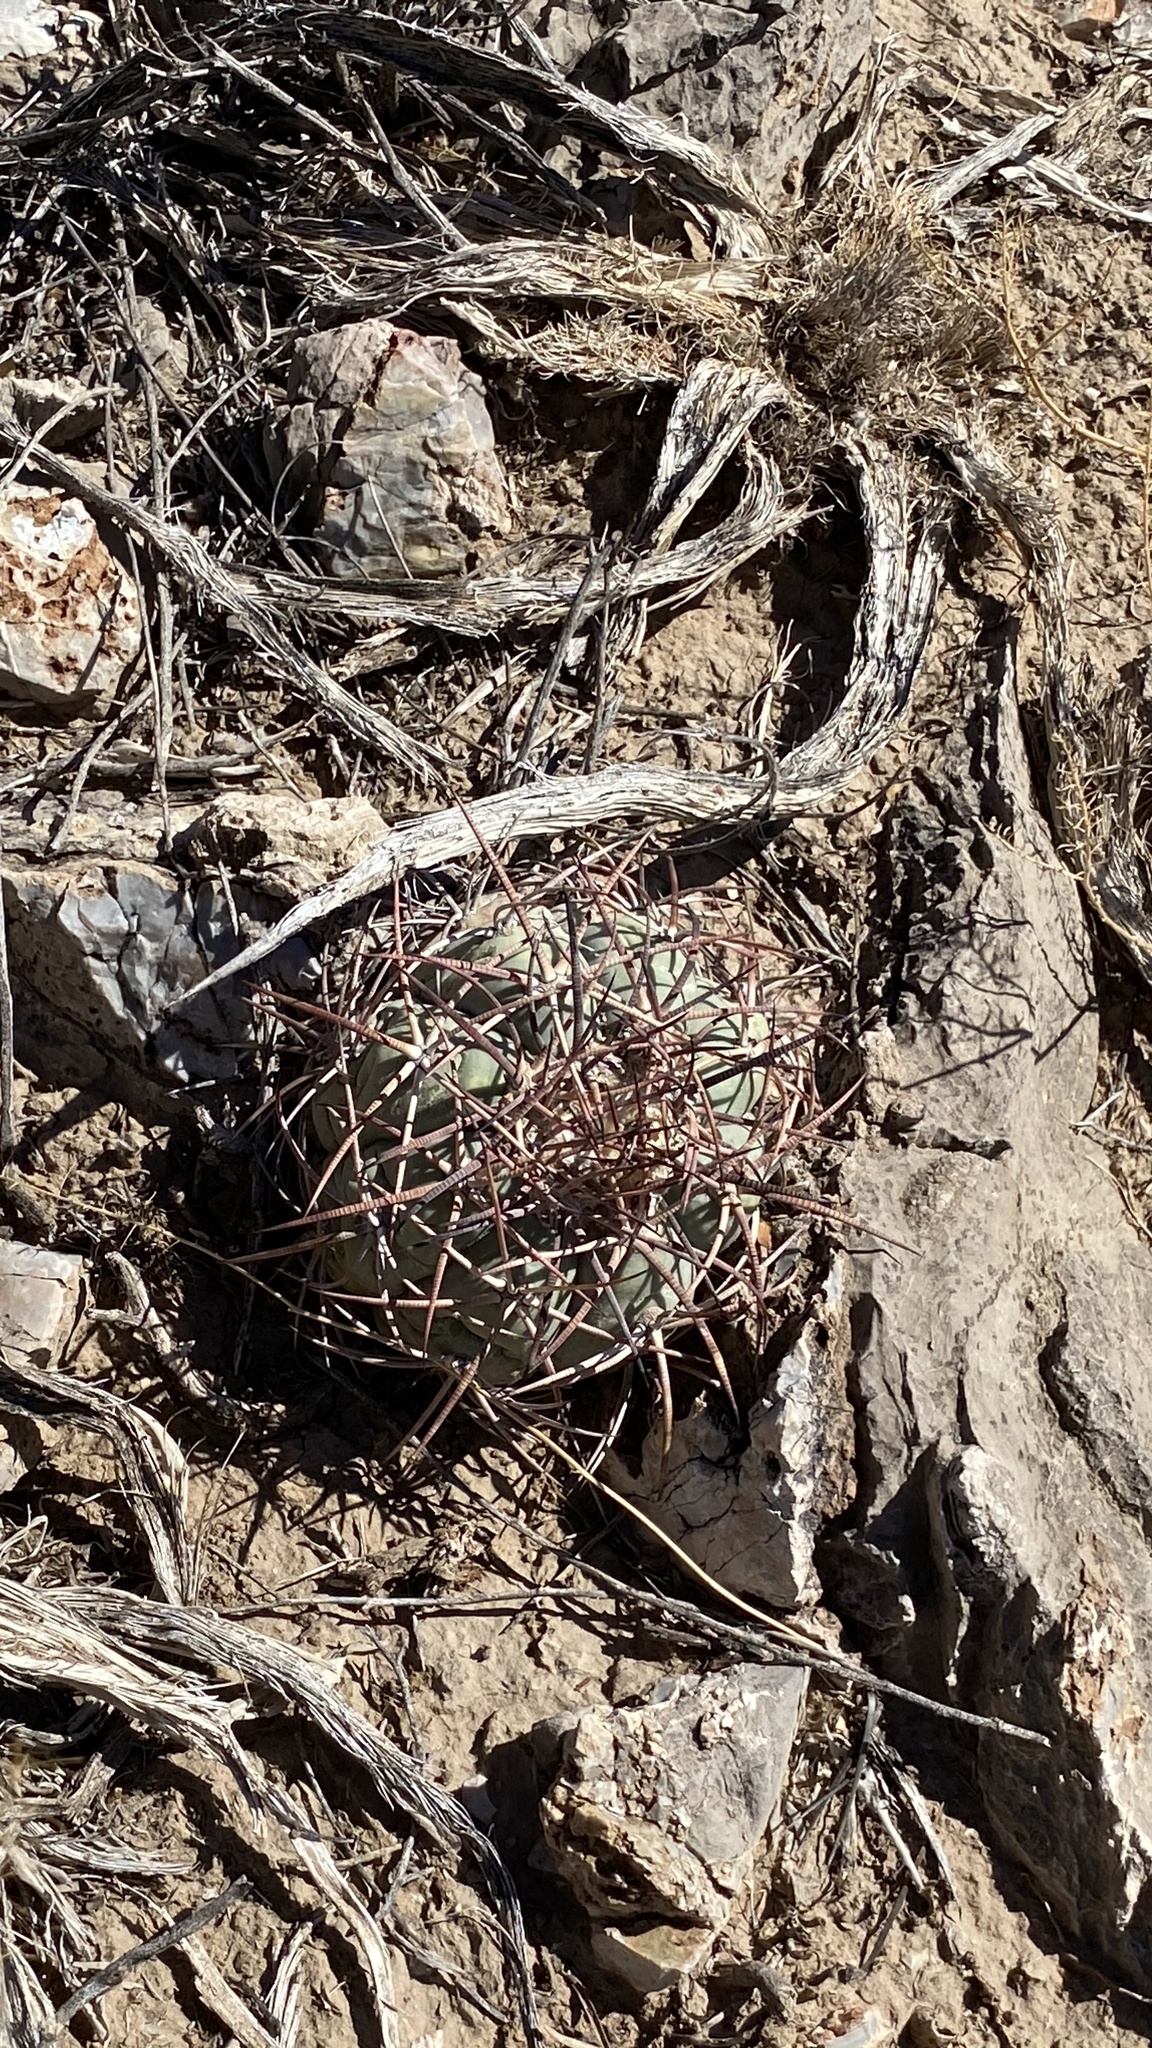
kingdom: Plantae
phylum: Tracheophyta
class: Magnoliopsida
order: Caryophyllales
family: Cactaceae
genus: Echinocactus
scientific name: Echinocactus horizonthalonius
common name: Devilshead
